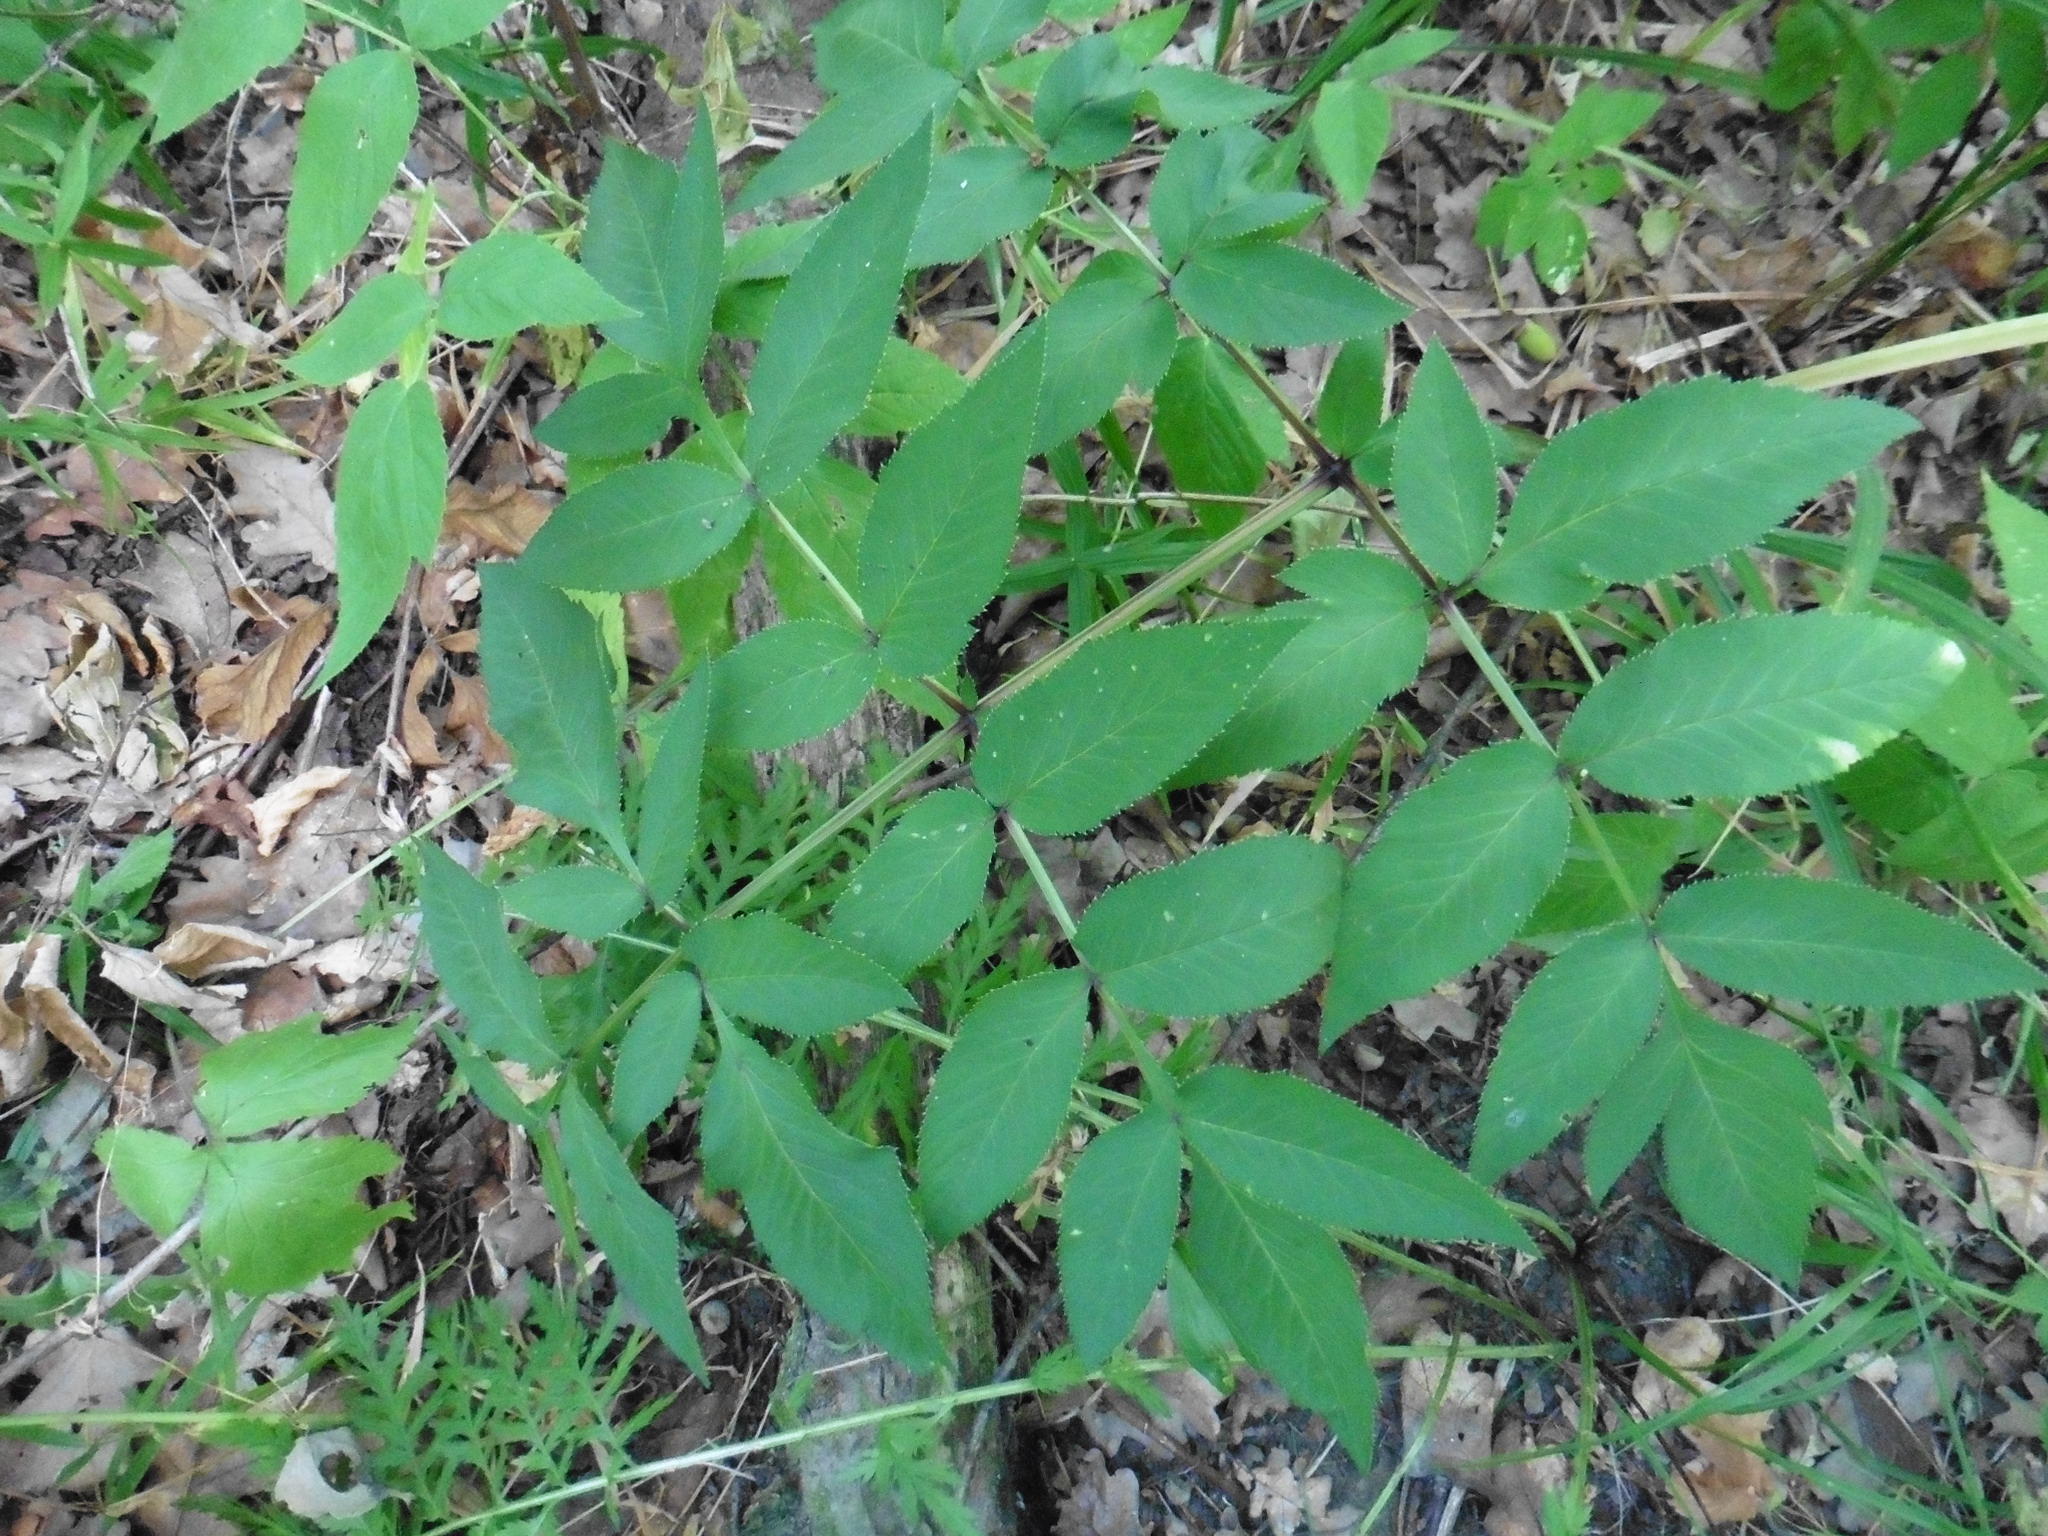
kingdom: Plantae
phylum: Tracheophyta
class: Magnoliopsida
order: Apiales
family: Apiaceae
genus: Angelica
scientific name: Angelica sylvestris
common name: Wild angelica
